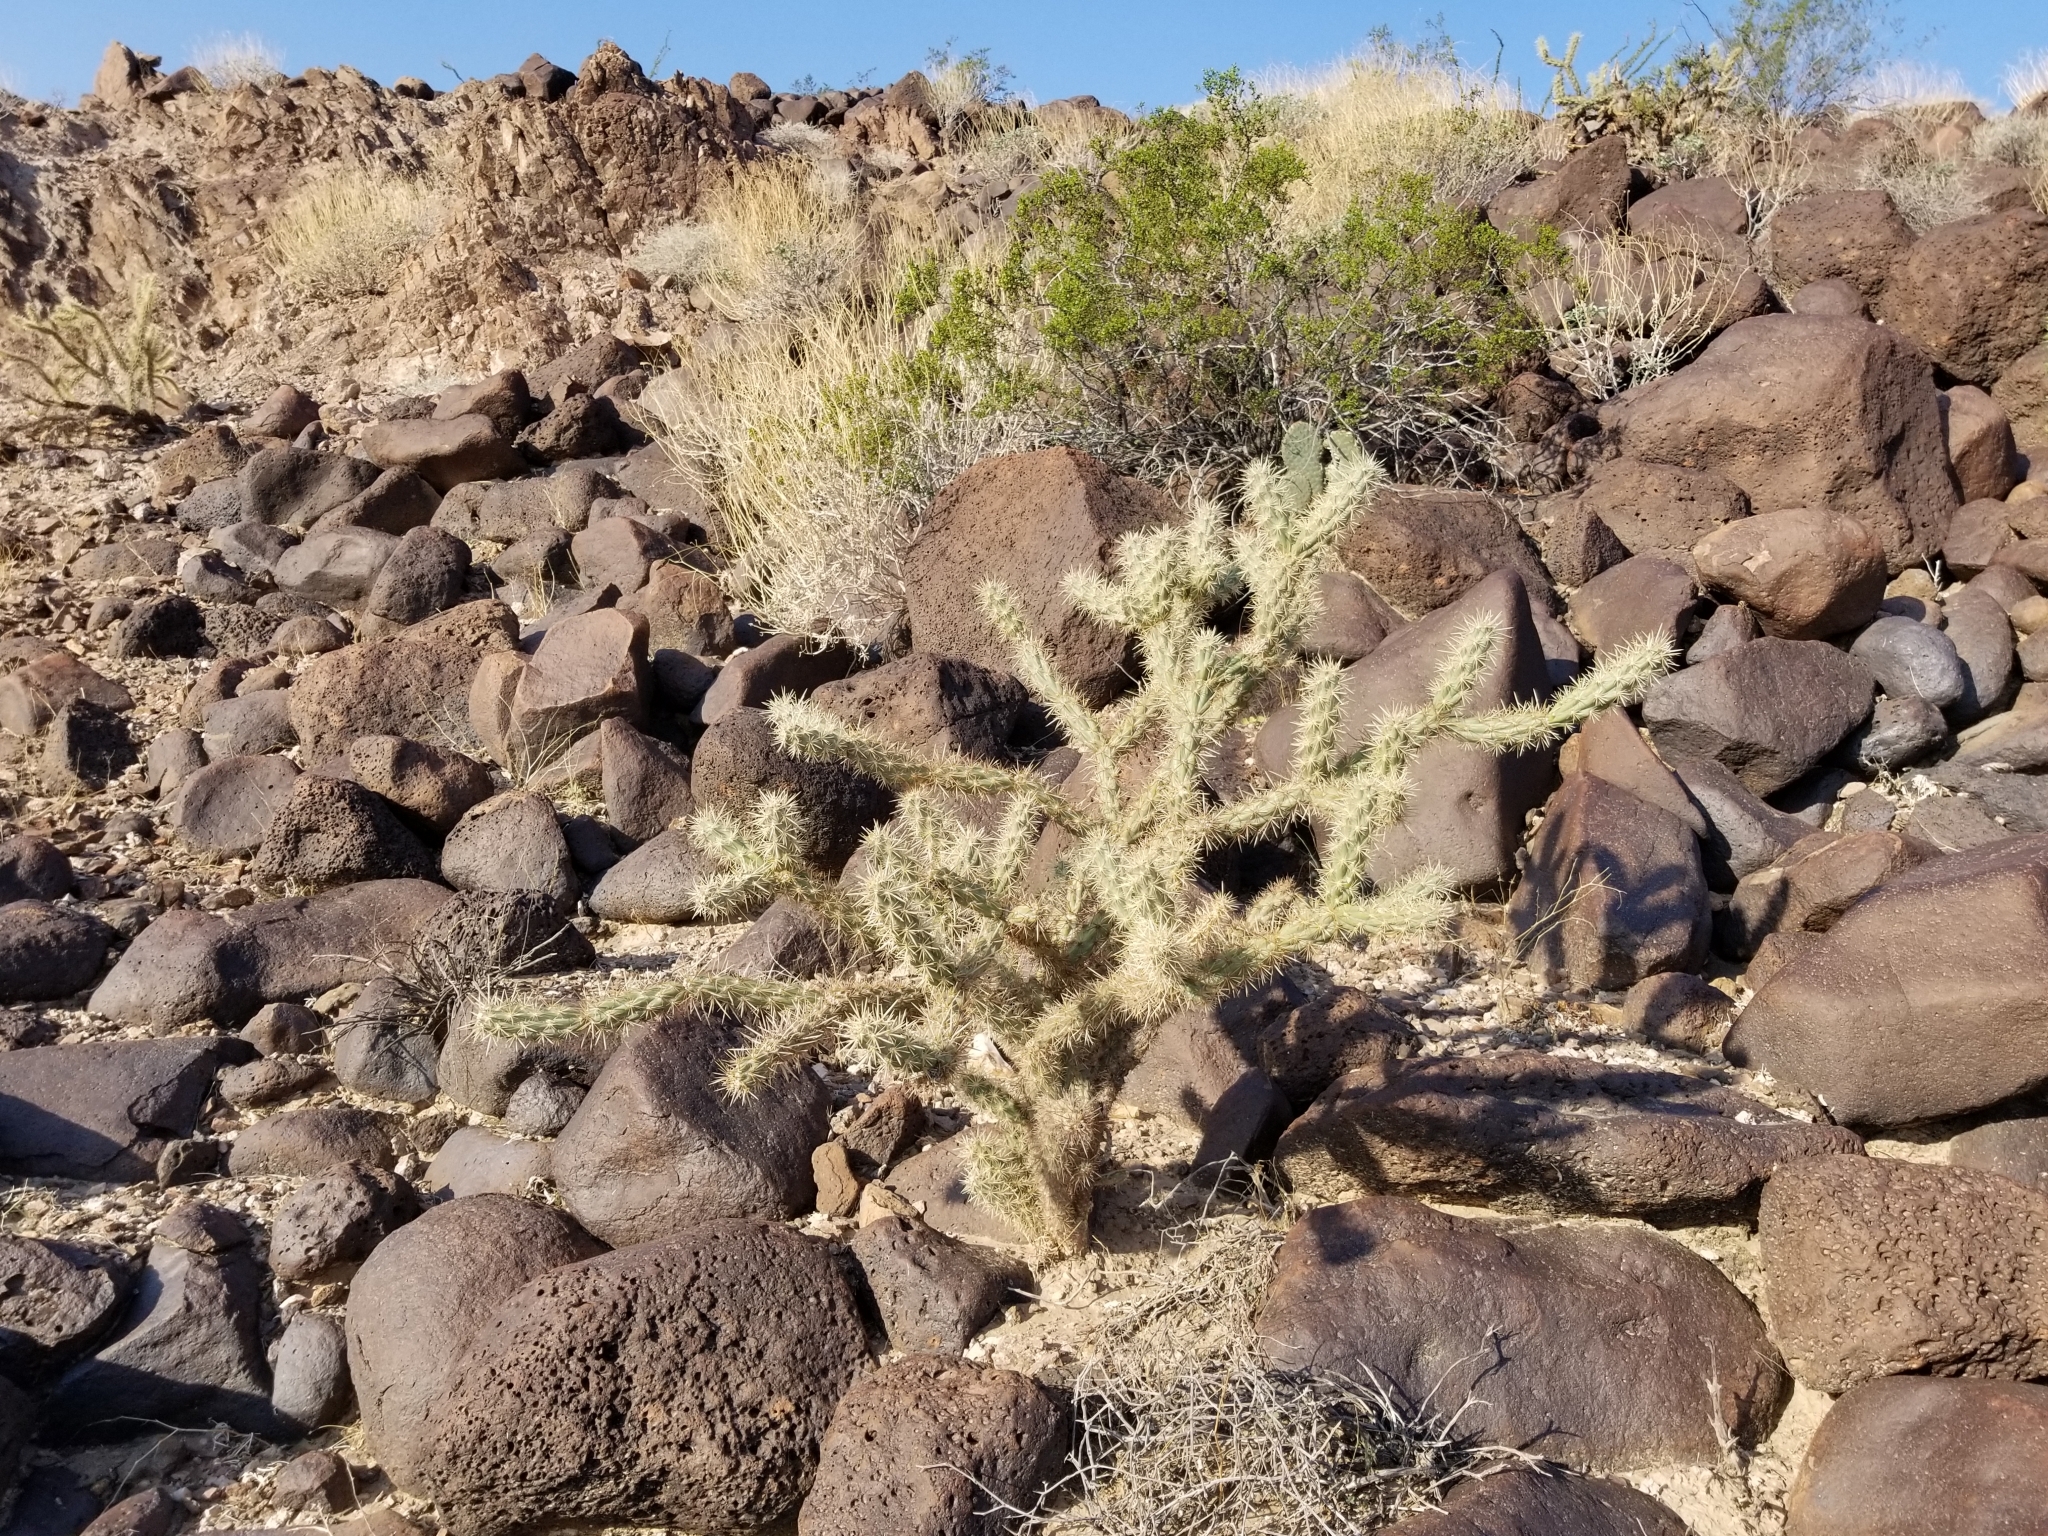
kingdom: Plantae
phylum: Tracheophyta
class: Magnoliopsida
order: Caryophyllales
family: Cactaceae
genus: Cylindropuntia
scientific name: Cylindropuntia acanthocarpa
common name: Buckhorn cholla
